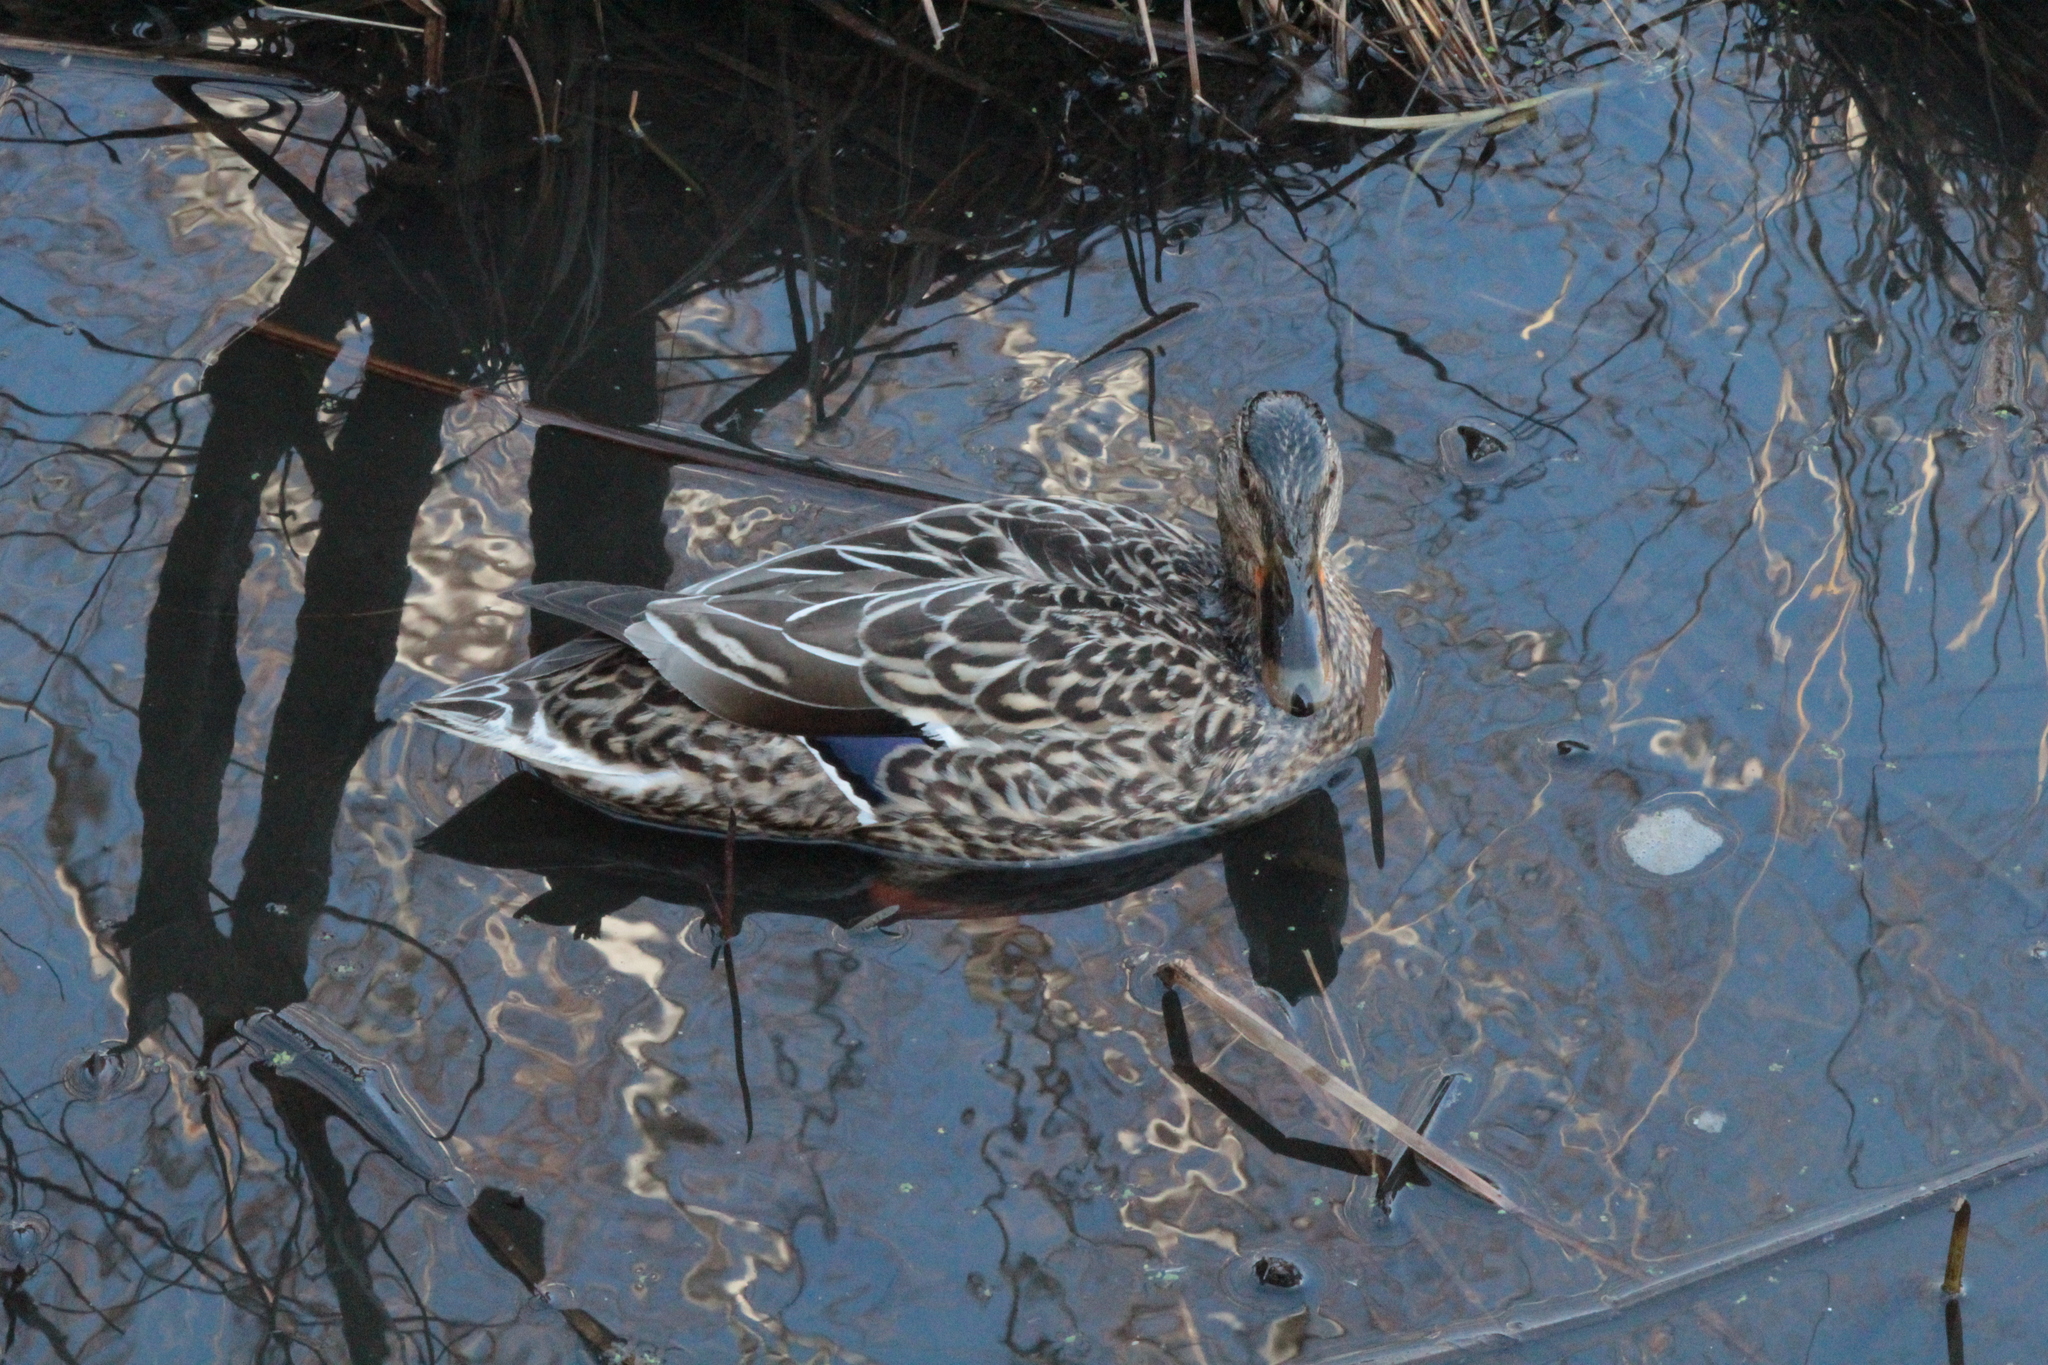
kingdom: Animalia
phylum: Chordata
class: Aves
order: Anseriformes
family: Anatidae
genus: Anas
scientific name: Anas platyrhynchos
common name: Mallard
